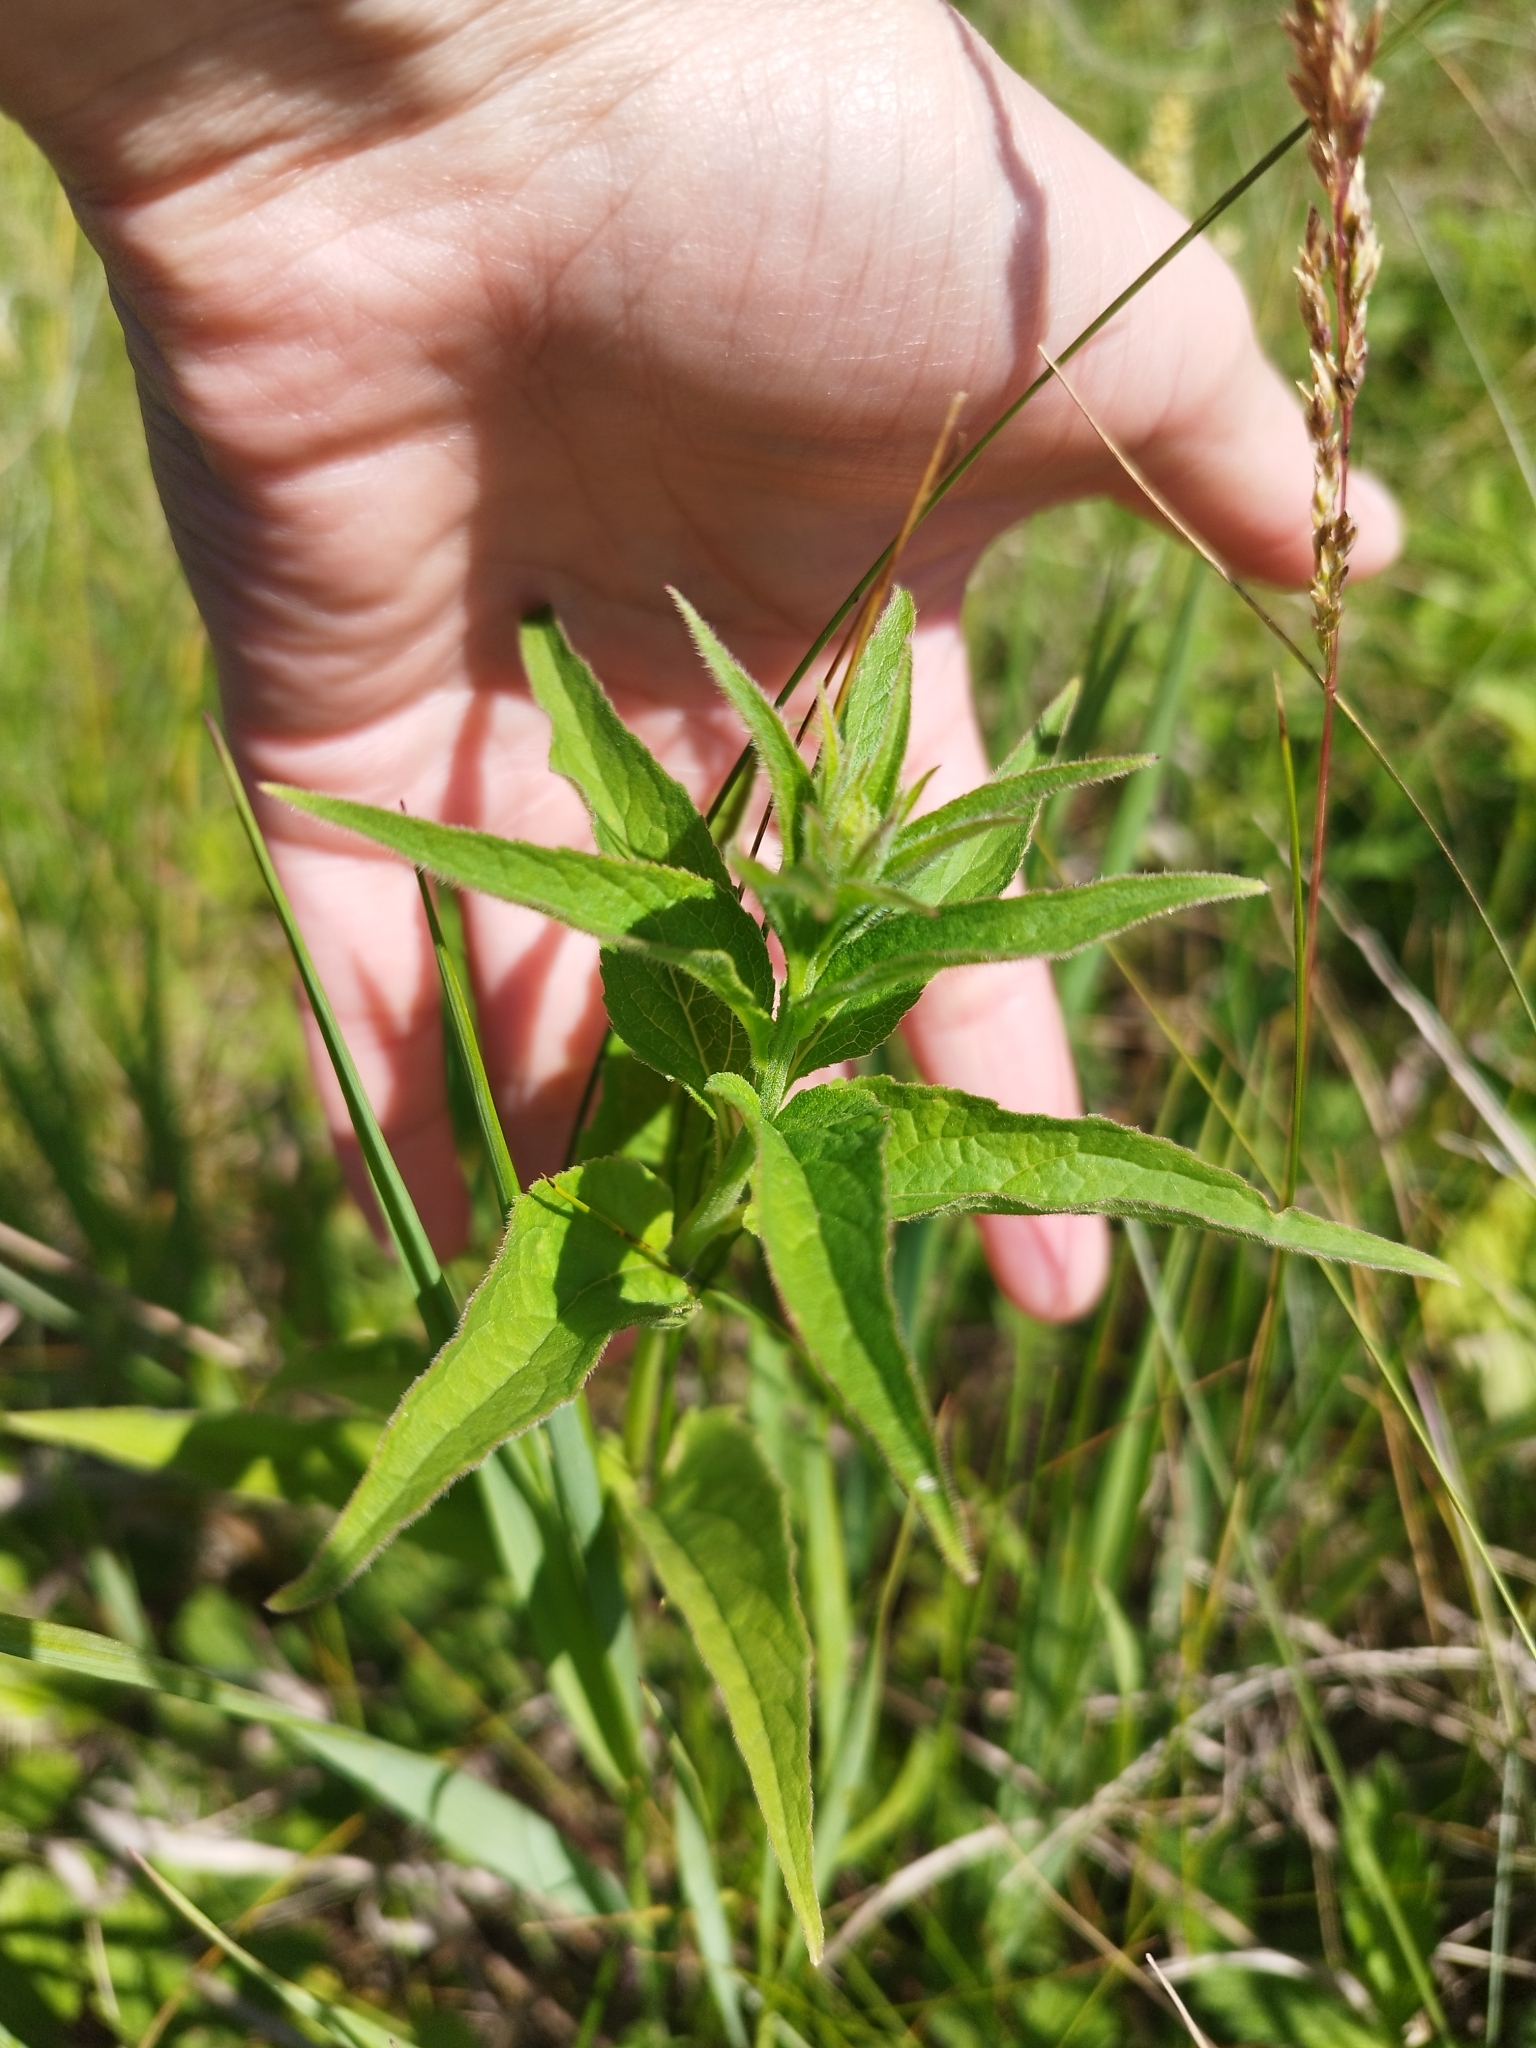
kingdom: Plantae
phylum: Tracheophyta
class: Magnoliopsida
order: Asterales
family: Campanulaceae
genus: Campanula
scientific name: Campanula glomerata
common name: Clustered bellflower
